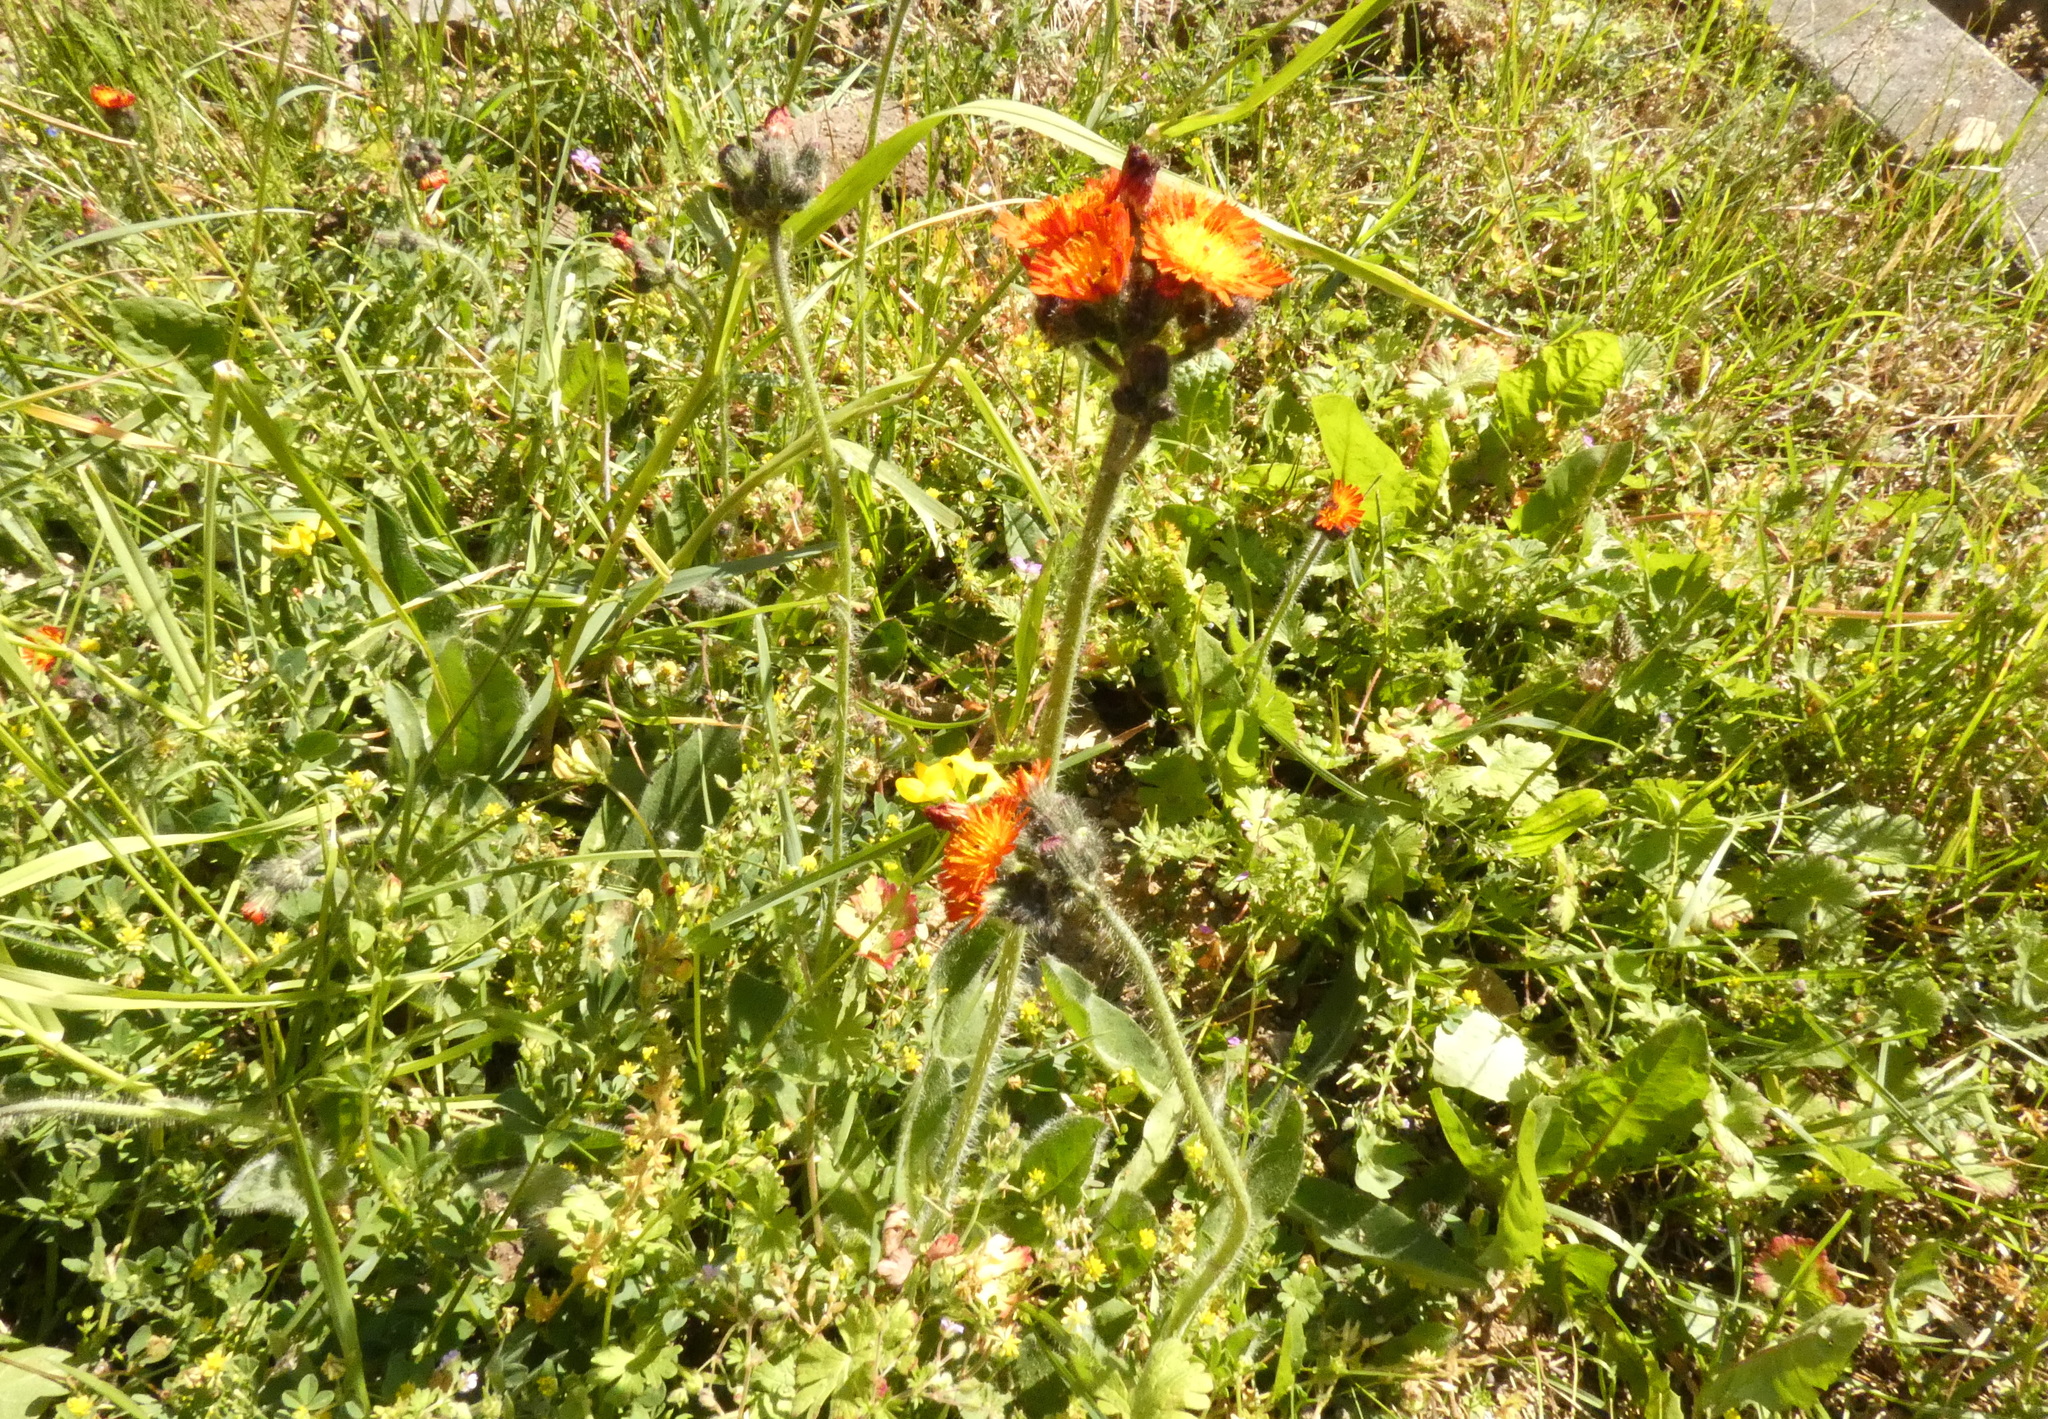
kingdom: Plantae
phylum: Tracheophyta
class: Magnoliopsida
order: Asterales
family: Asteraceae
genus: Pilosella
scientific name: Pilosella aurantiaca
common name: Fox-and-cubs
